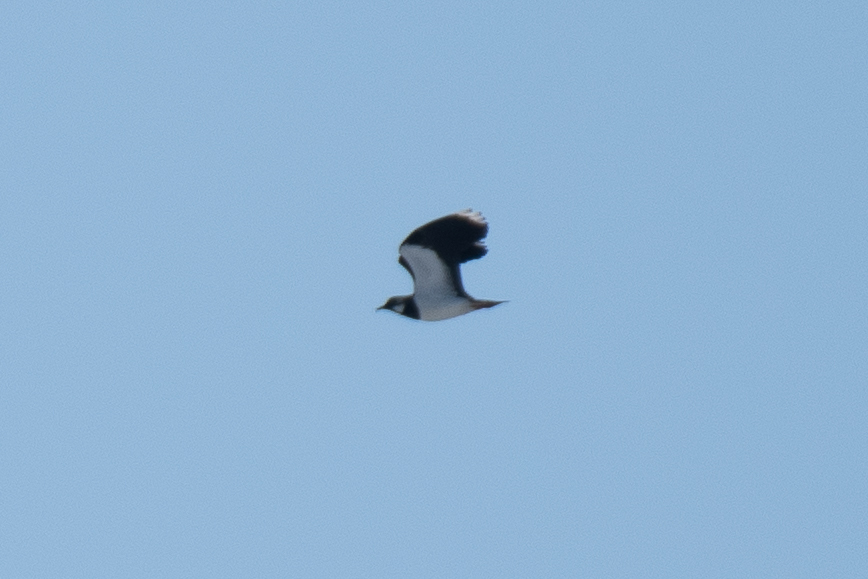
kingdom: Animalia
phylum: Chordata
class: Aves
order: Charadriiformes
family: Charadriidae
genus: Vanellus
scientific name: Vanellus vanellus
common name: Northern lapwing
